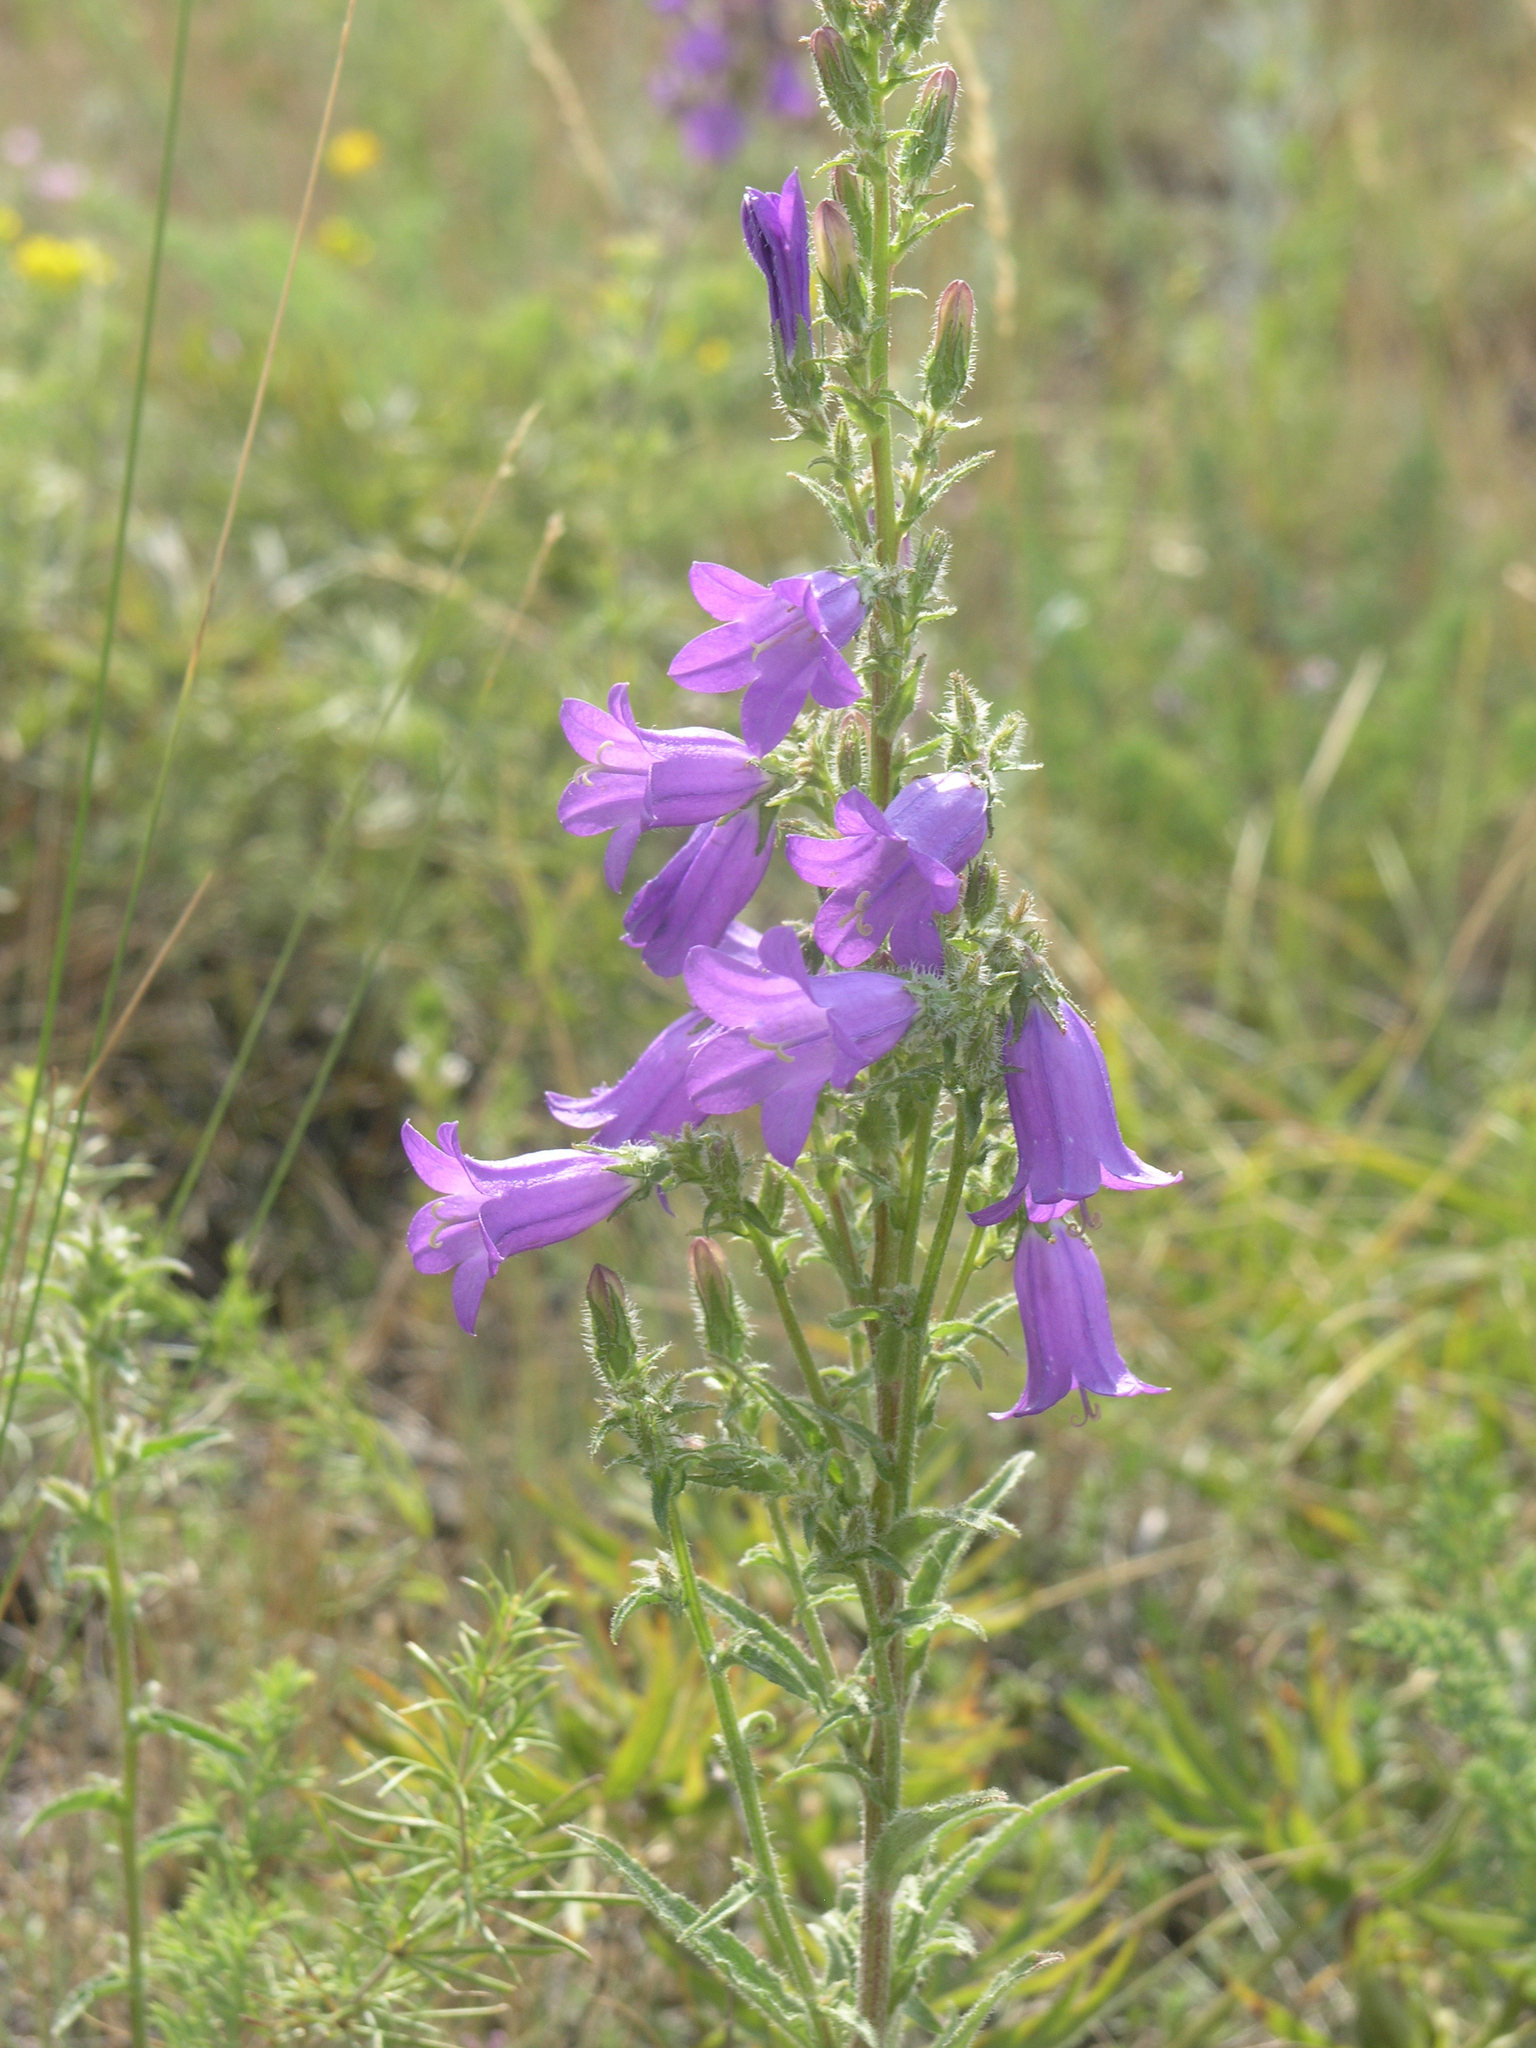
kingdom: Plantae
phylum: Tracheophyta
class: Magnoliopsida
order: Asterales
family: Campanulaceae
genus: Campanula
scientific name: Campanula sibirica
